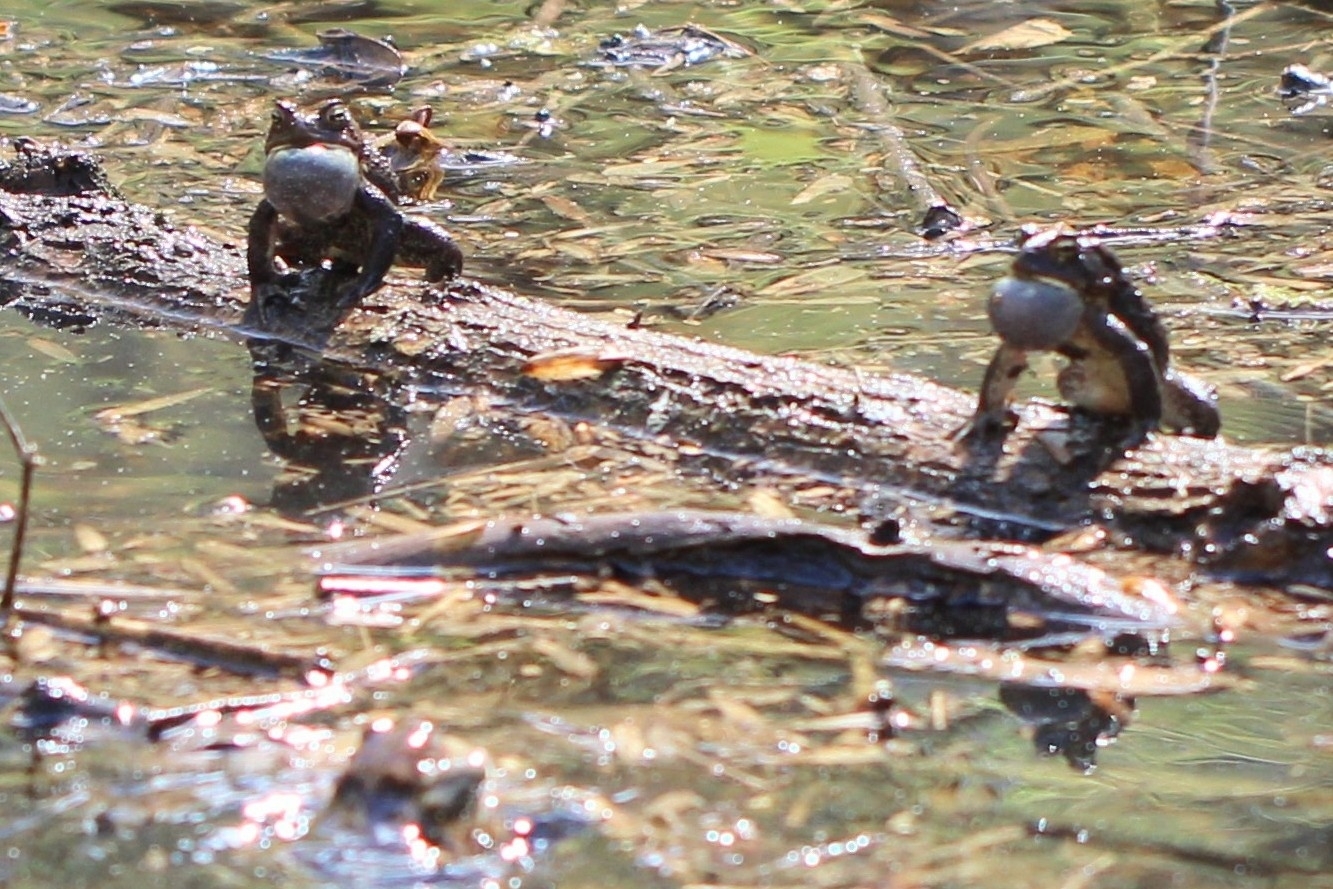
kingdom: Animalia
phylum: Chordata
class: Amphibia
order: Anura
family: Bufonidae
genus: Anaxyrus
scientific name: Anaxyrus americanus
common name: American toad
